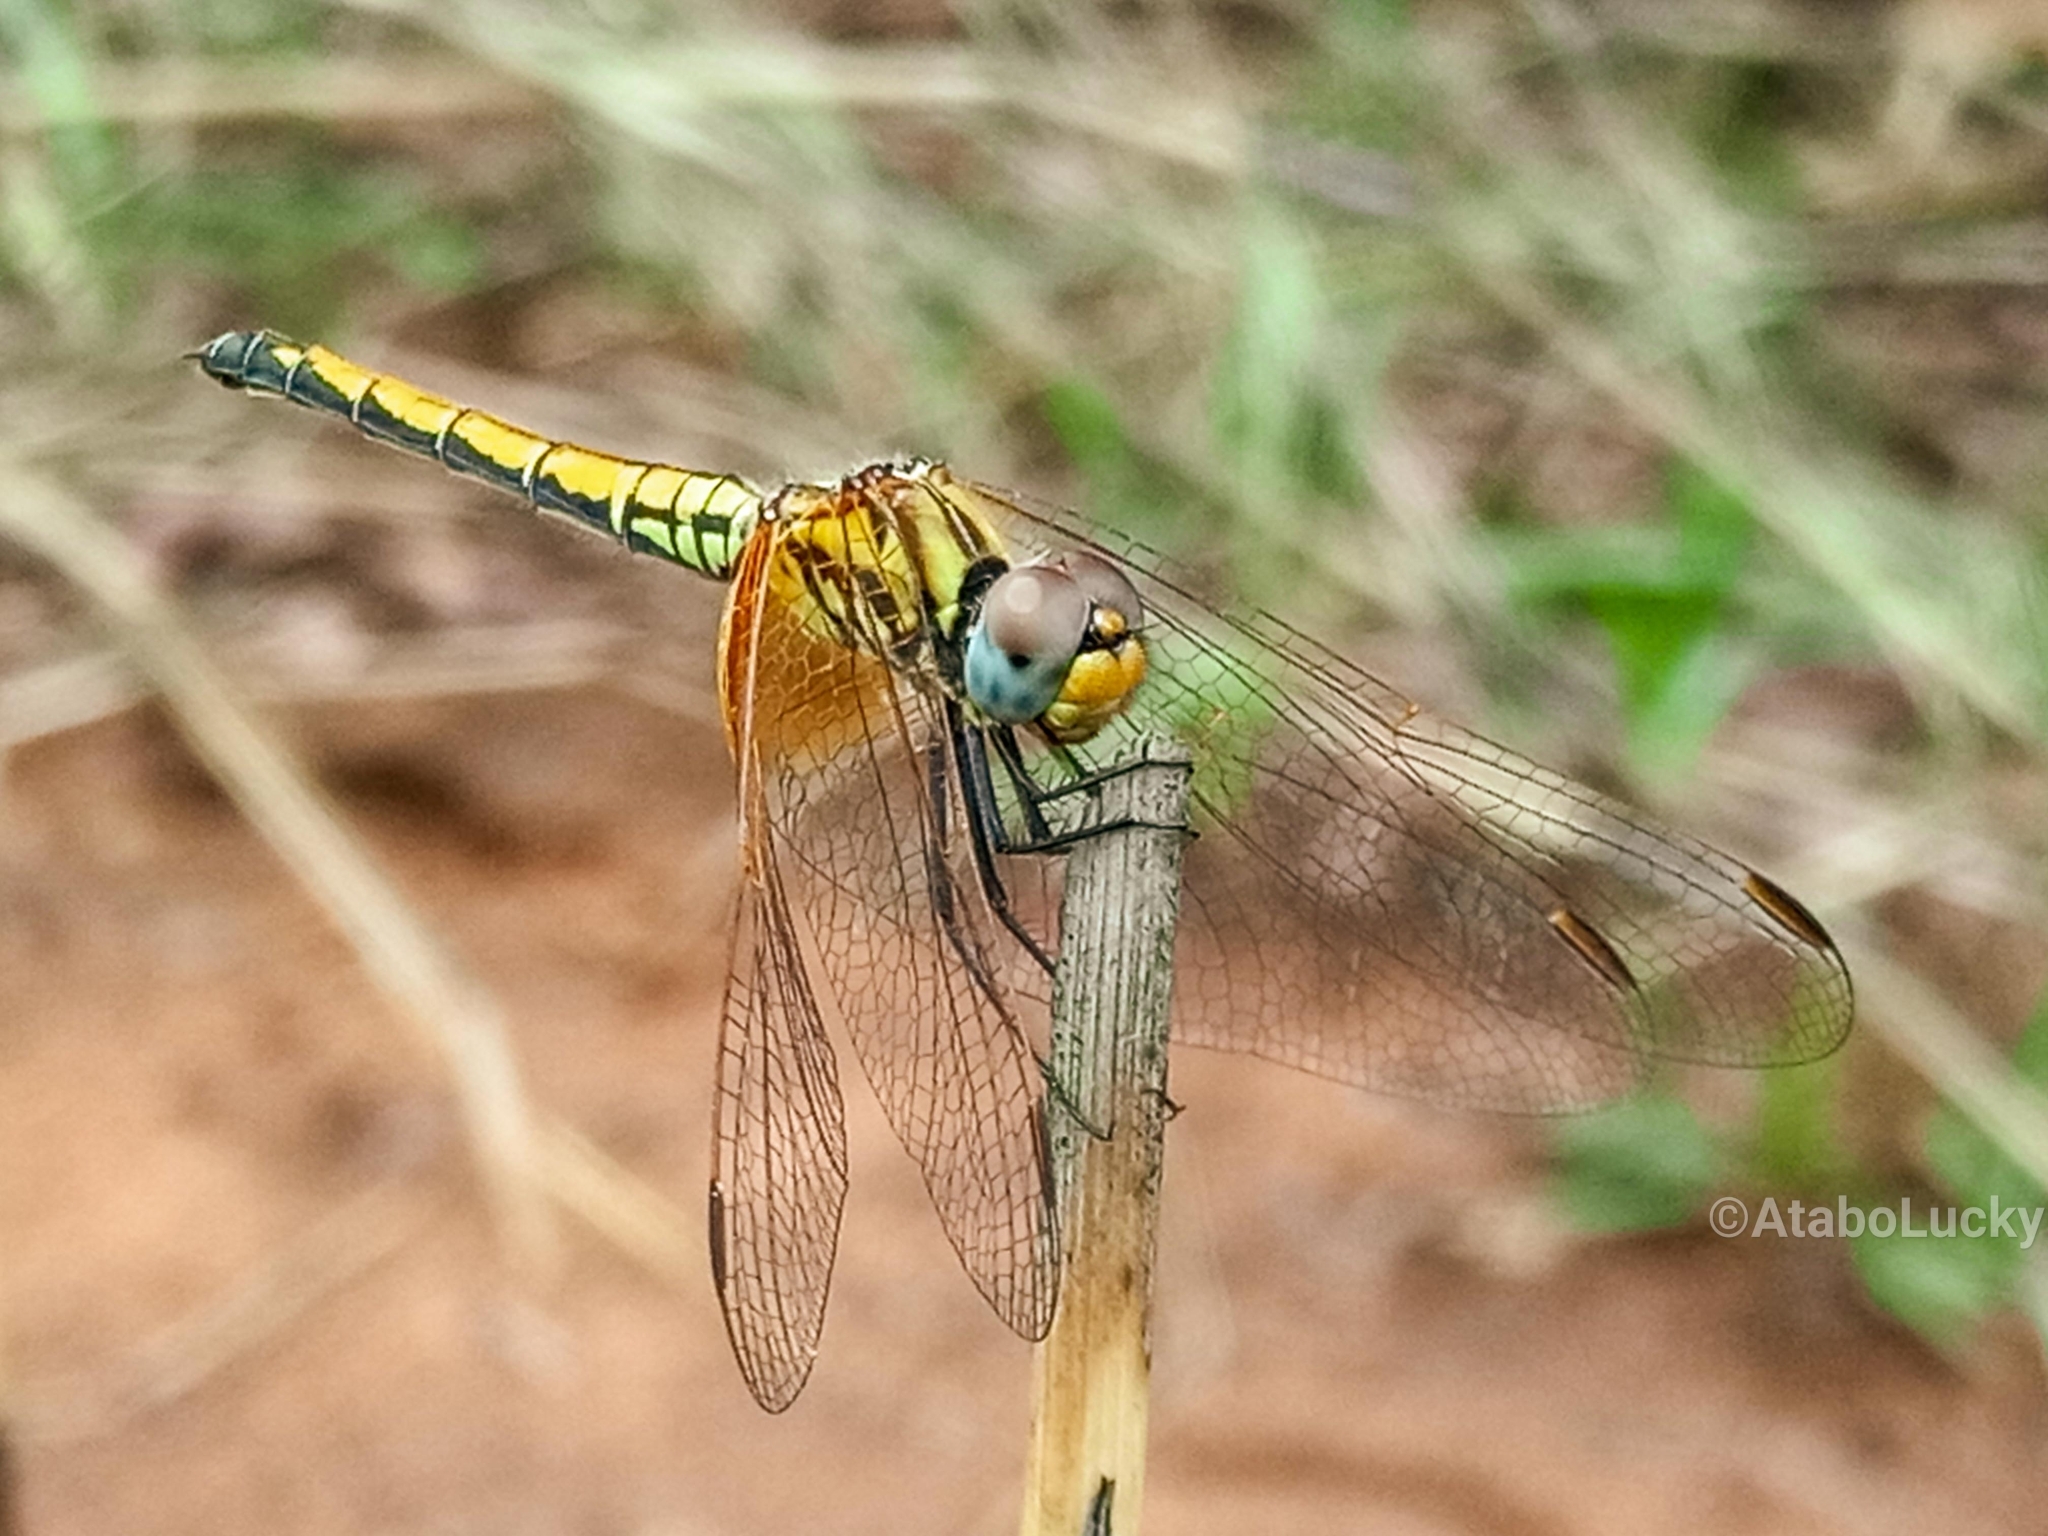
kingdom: Animalia
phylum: Arthropoda
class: Insecta
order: Odonata
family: Libellulidae
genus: Trithemis
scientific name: Trithemis arteriosa
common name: Red-veined dropwing
